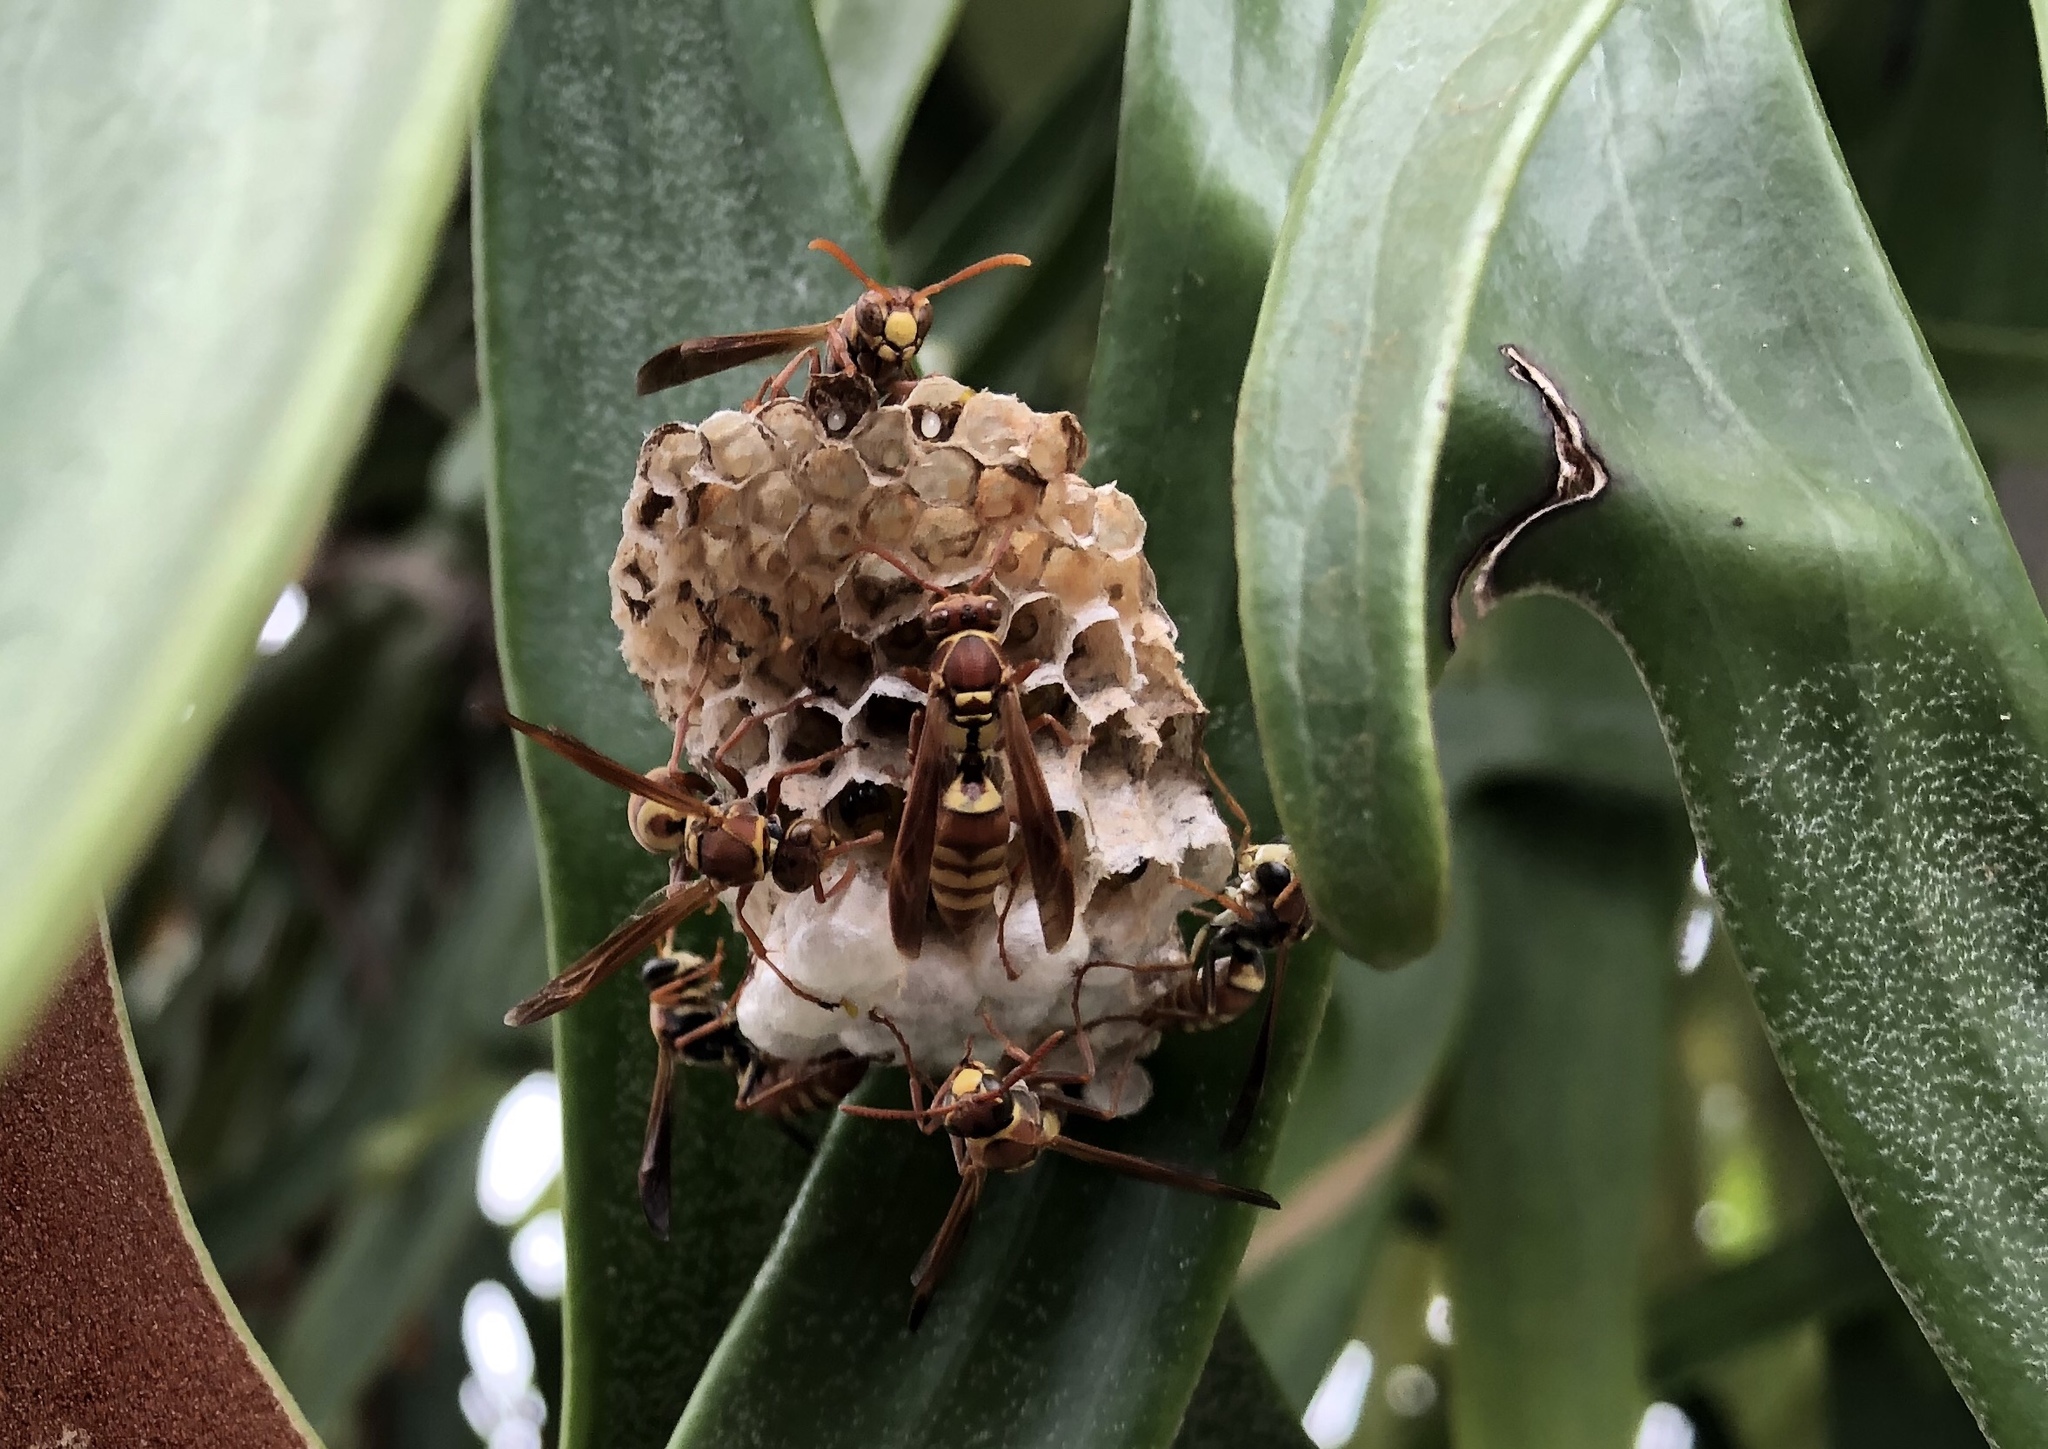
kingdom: Animalia
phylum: Arthropoda
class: Insecta
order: Hymenoptera
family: Eumenidae
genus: Polistes
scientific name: Polistes shirakii
